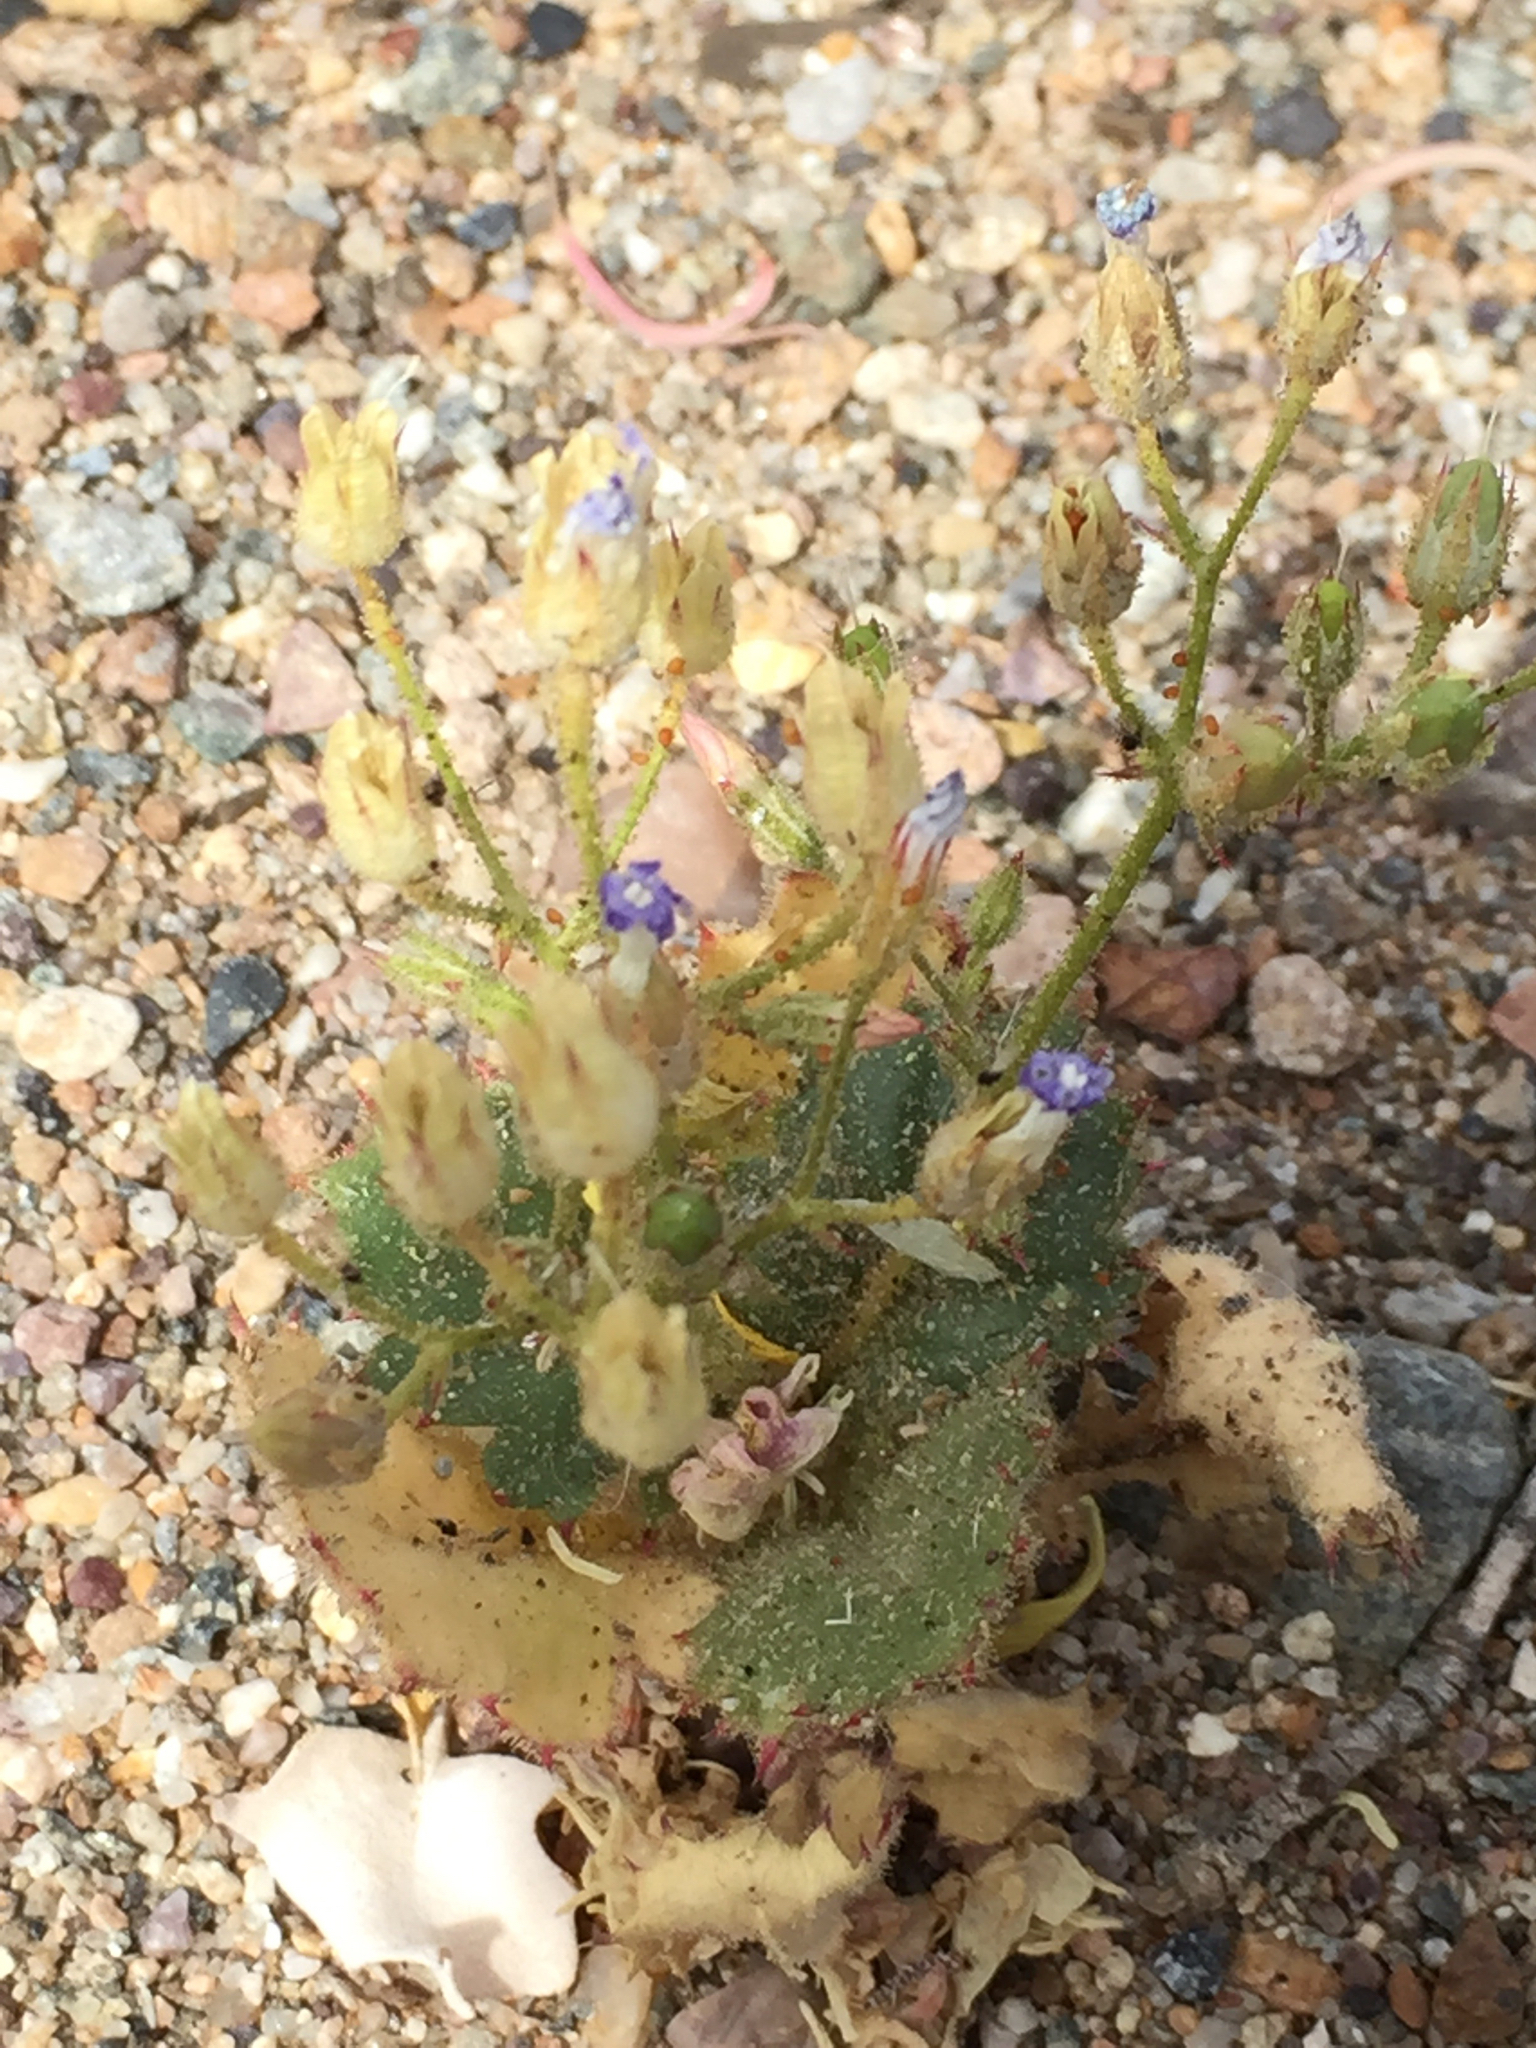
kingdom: Plantae
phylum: Tracheophyta
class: Magnoliopsida
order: Ericales
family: Polemoniaceae
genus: Aliciella
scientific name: Aliciella latifolia
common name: Broad-leaf gilia
